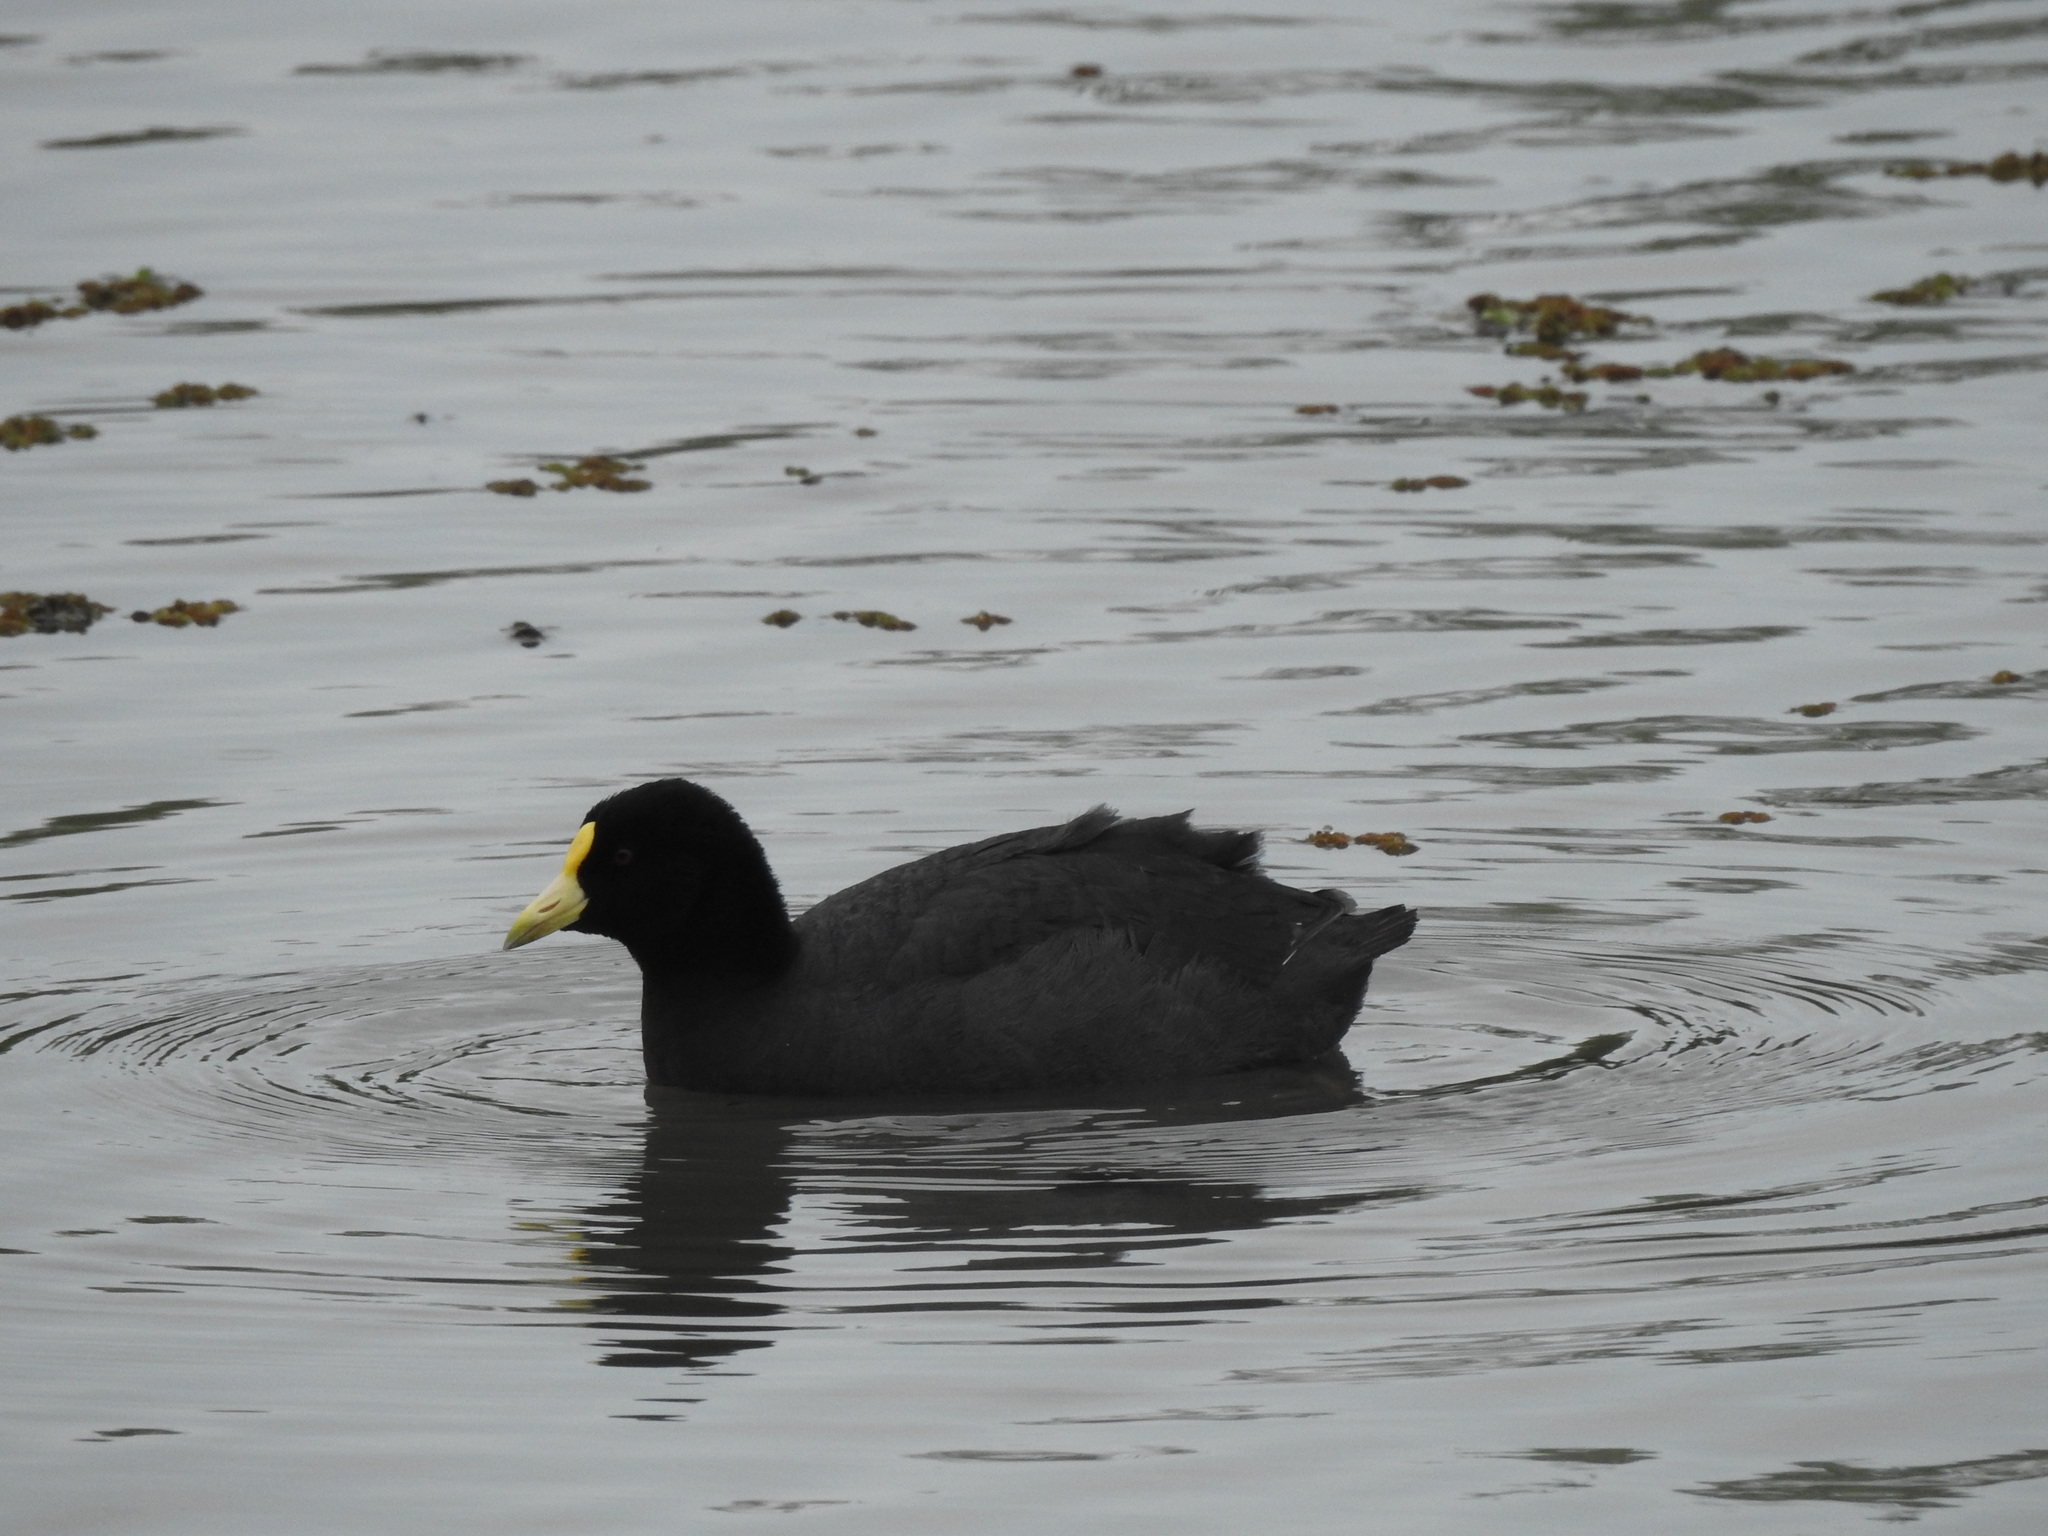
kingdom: Animalia
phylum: Chordata
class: Aves
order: Gruiformes
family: Rallidae
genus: Fulica
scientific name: Fulica leucoptera
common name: White-winged coot
